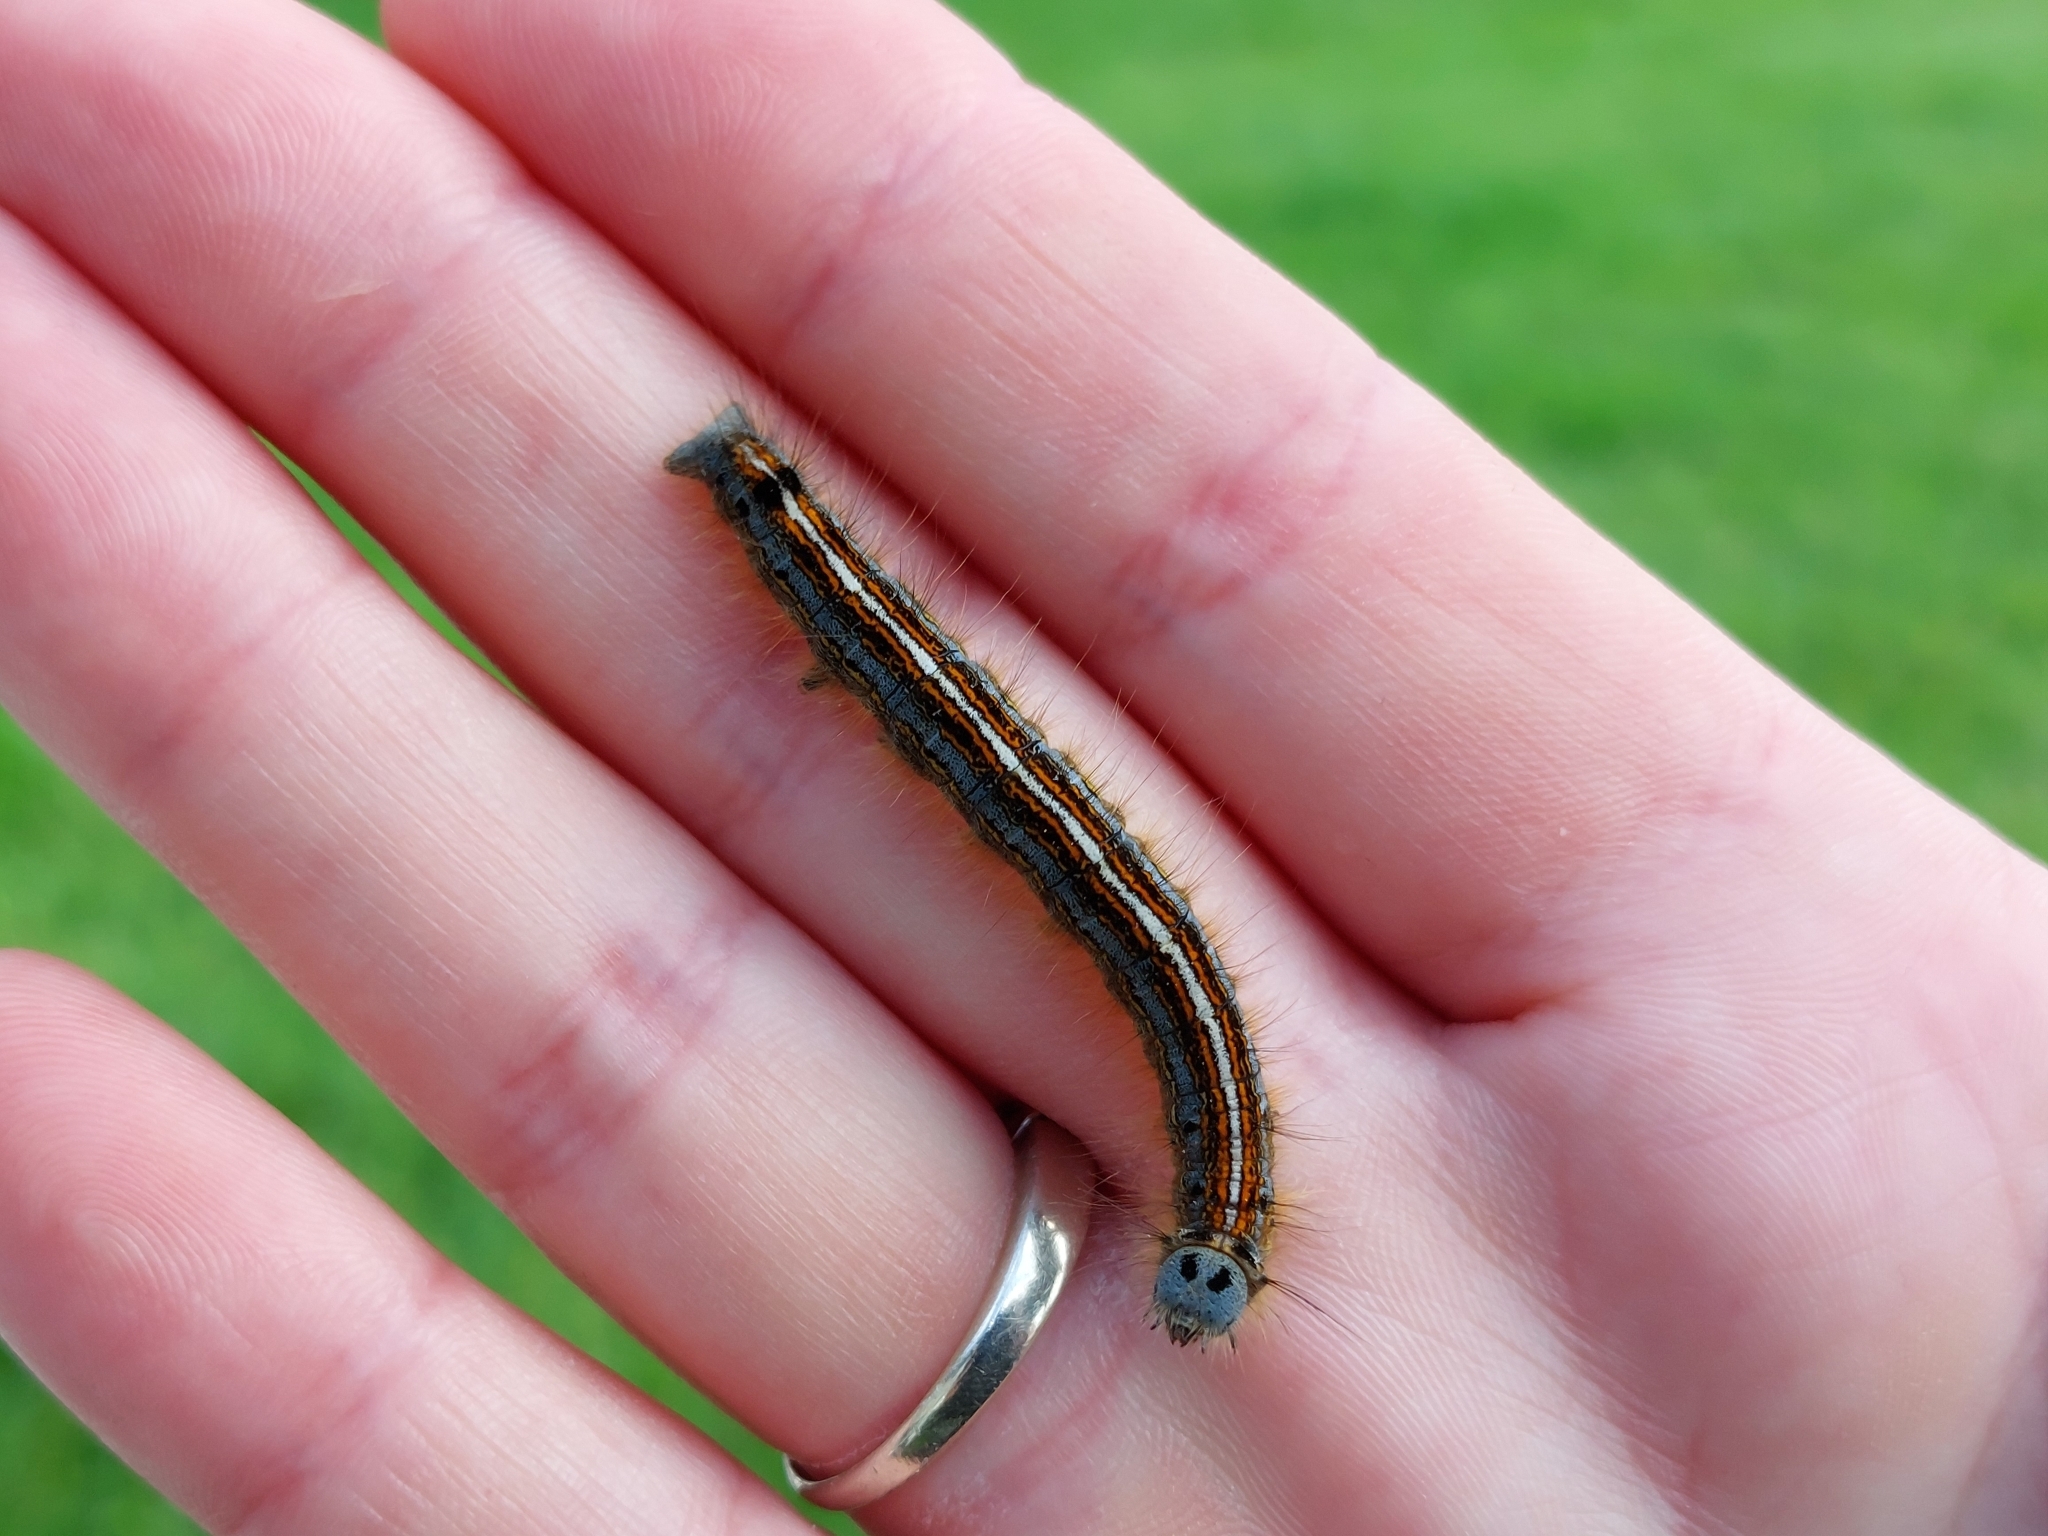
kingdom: Animalia
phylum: Arthropoda
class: Insecta
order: Lepidoptera
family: Lasiocampidae
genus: Malacosoma
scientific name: Malacosoma neustria
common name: The lackey
